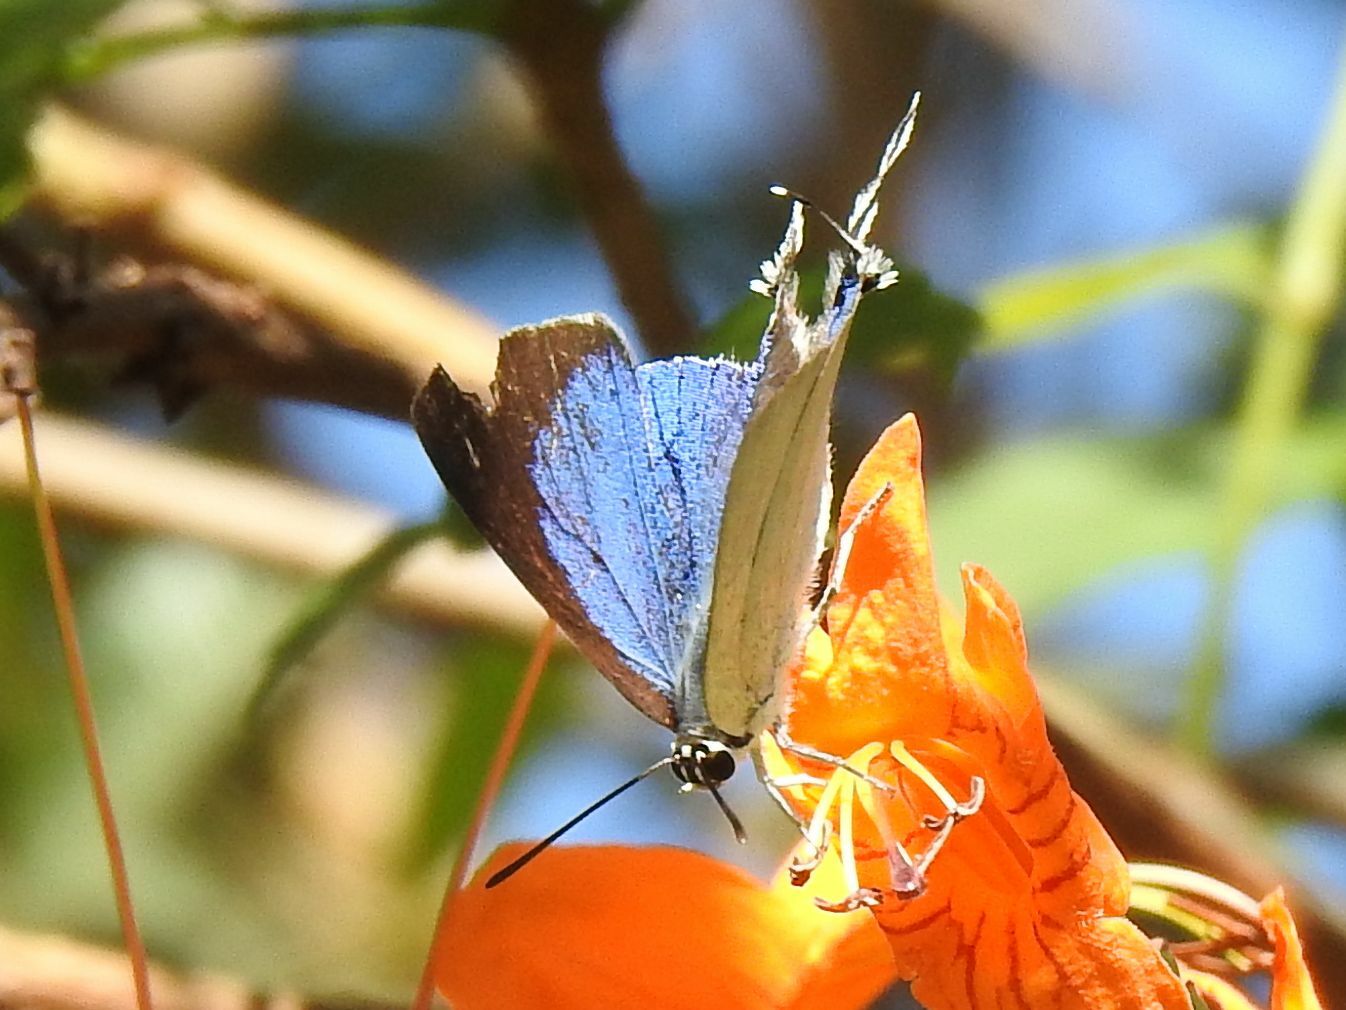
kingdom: Animalia
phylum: Arthropoda
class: Insecta
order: Lepidoptera
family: Lycaenidae
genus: Argiolaus
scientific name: Argiolaus silas
